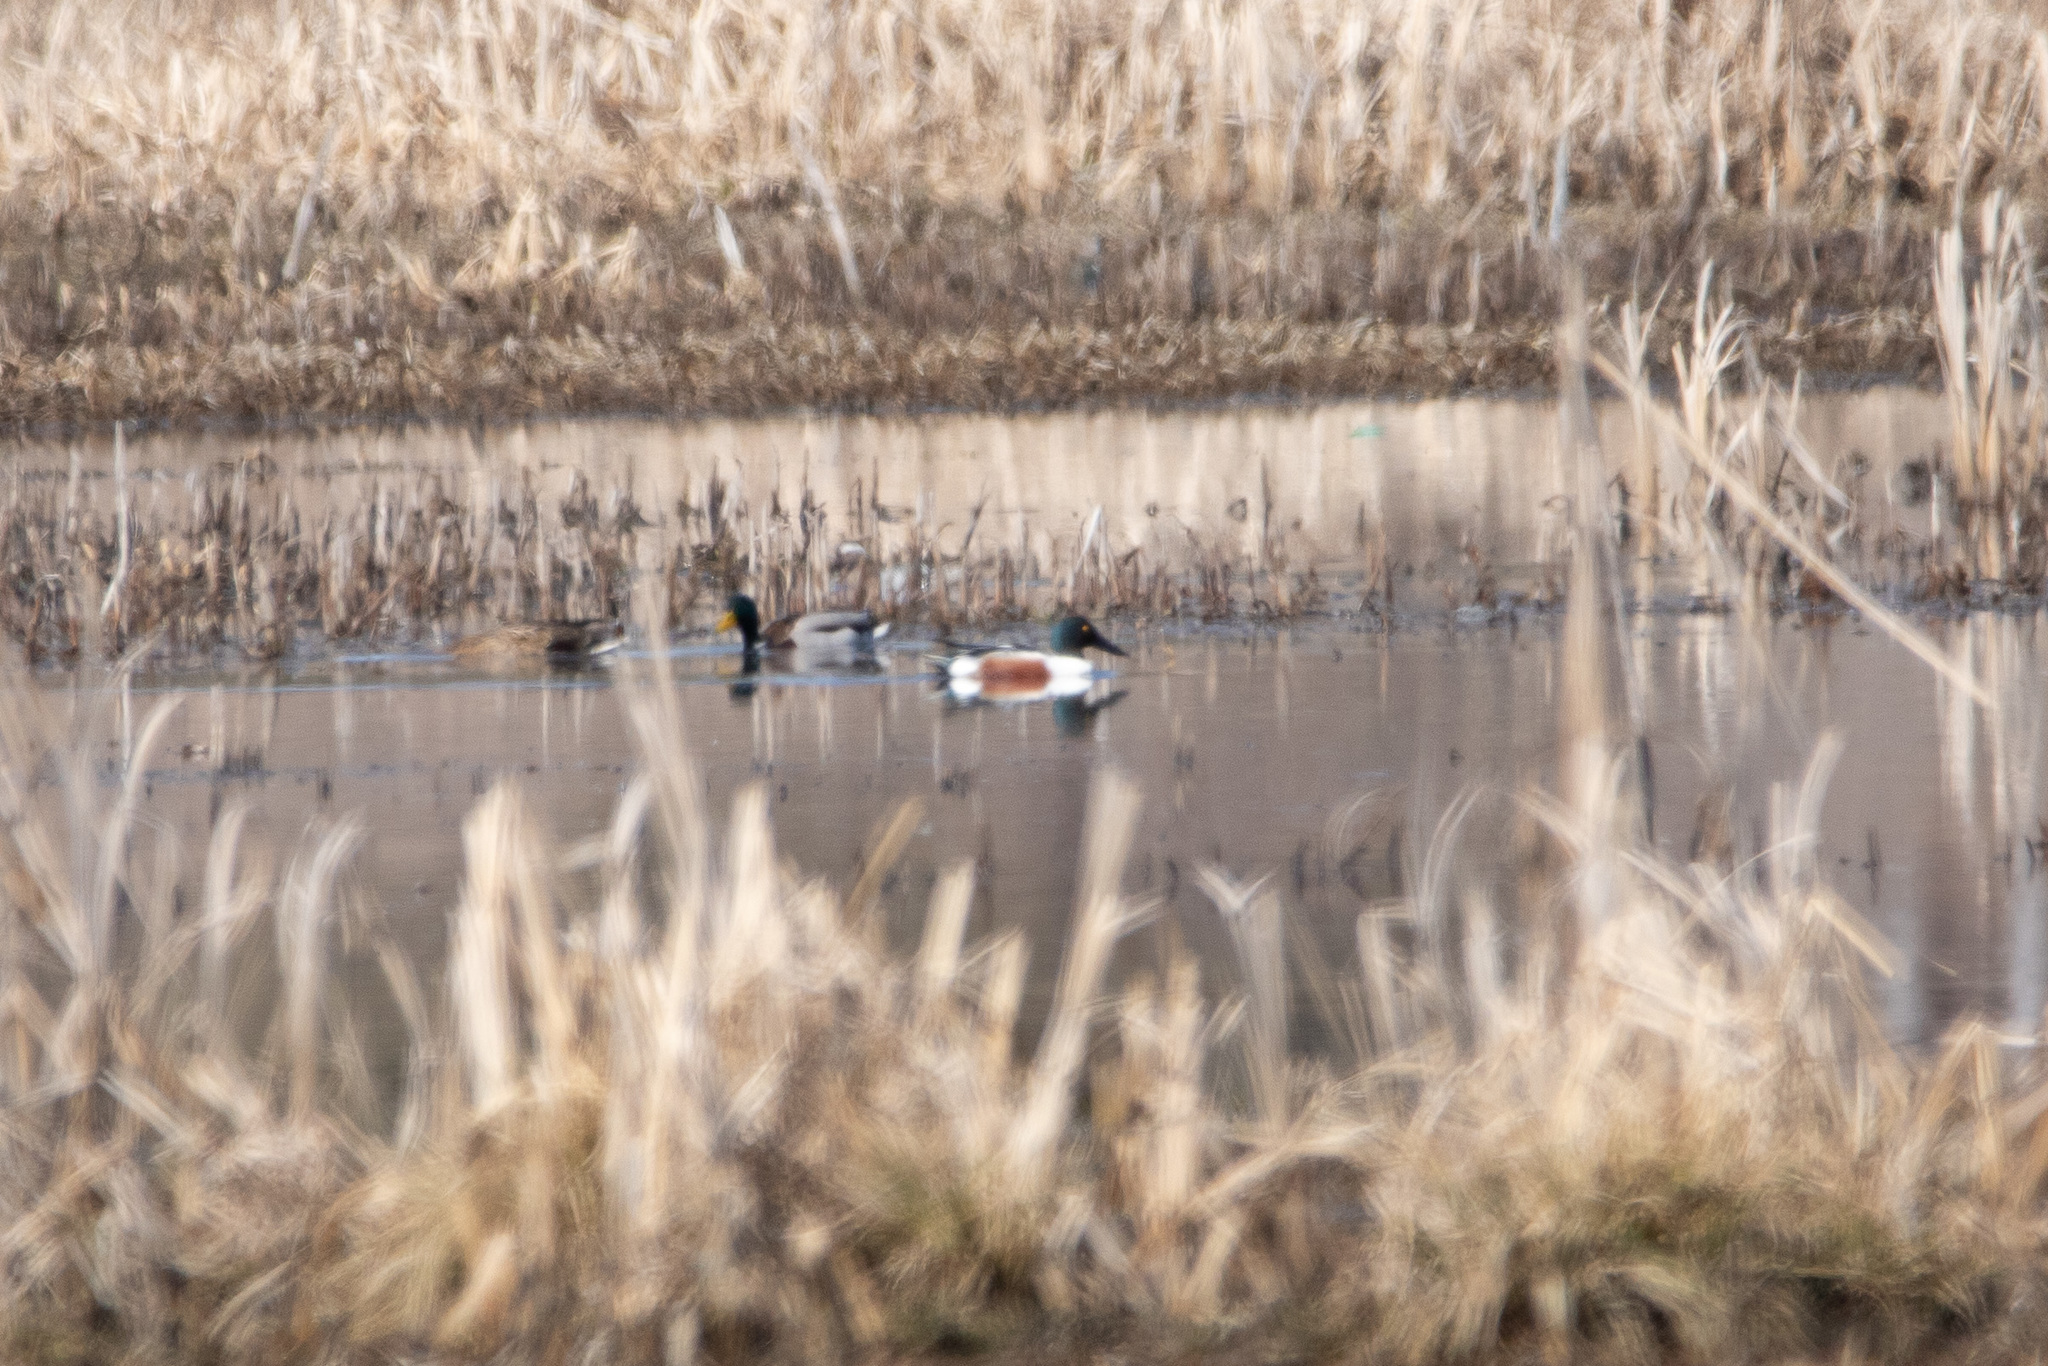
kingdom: Animalia
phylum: Chordata
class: Aves
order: Anseriformes
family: Anatidae
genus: Spatula
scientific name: Spatula clypeata
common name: Northern shoveler
